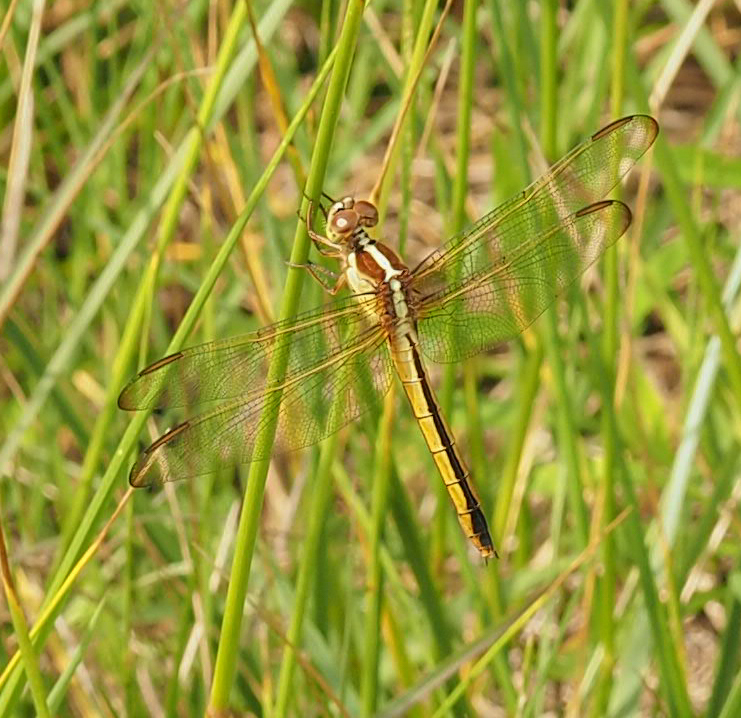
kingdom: Animalia
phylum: Arthropoda
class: Insecta
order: Odonata
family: Libellulidae
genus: Libellula
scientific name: Libellula needhami
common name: Needham's skimmer
